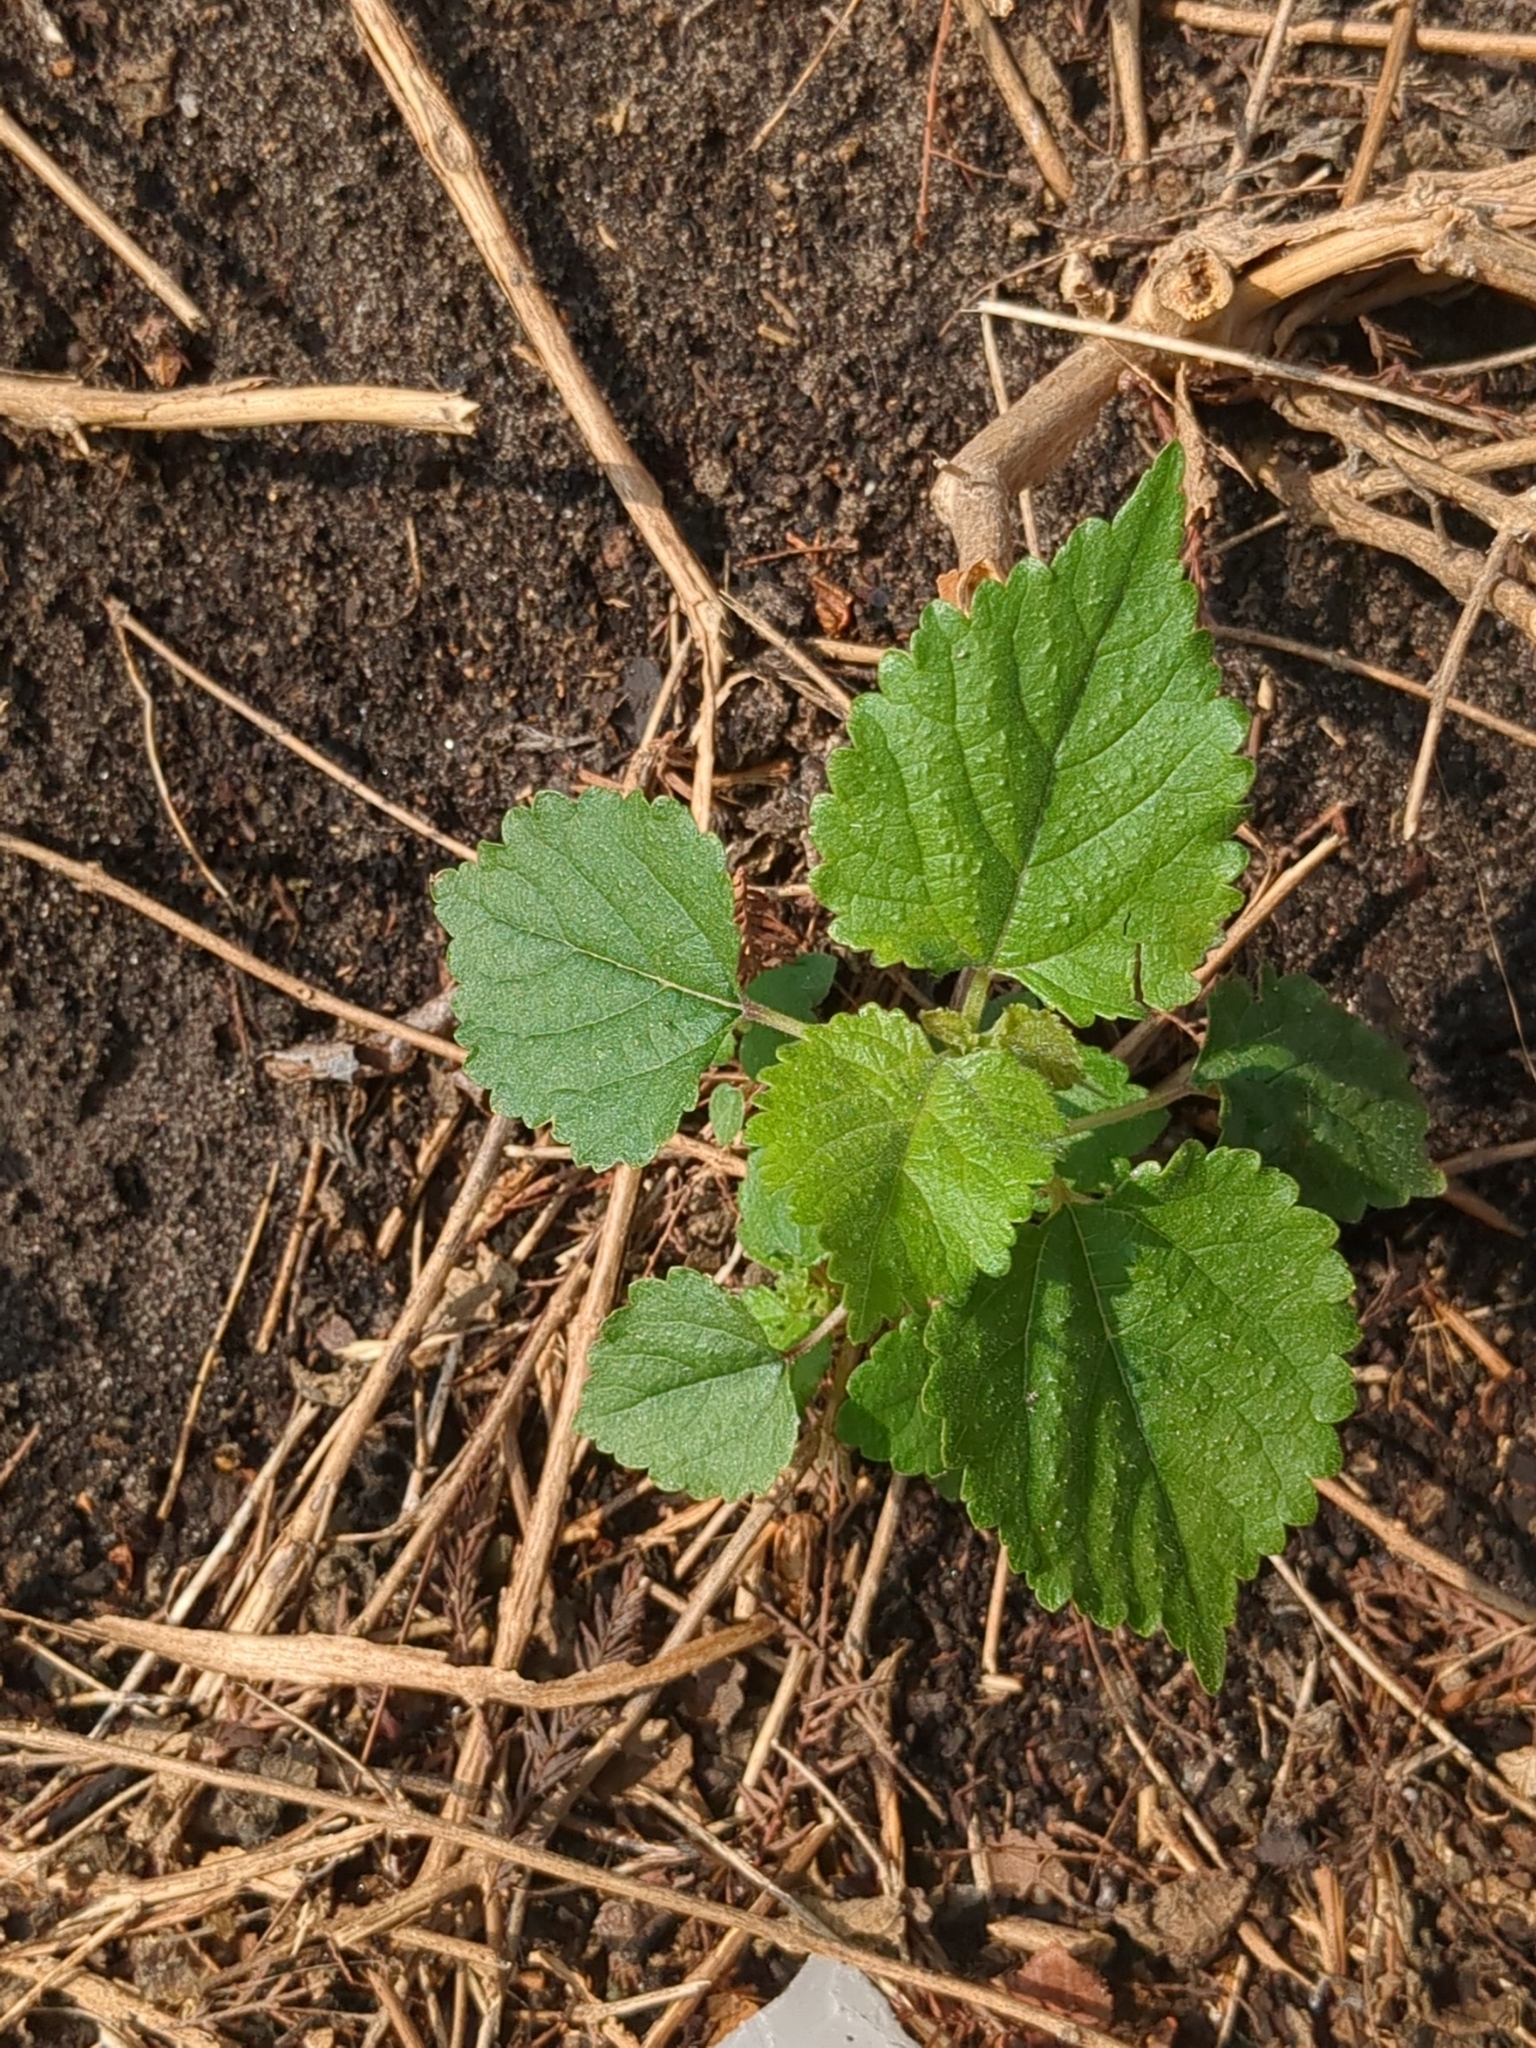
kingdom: Plantae
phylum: Tracheophyta
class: Magnoliopsida
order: Rosales
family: Moraceae
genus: Fatoua
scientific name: Fatoua villosa
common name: Hairy crabweed
